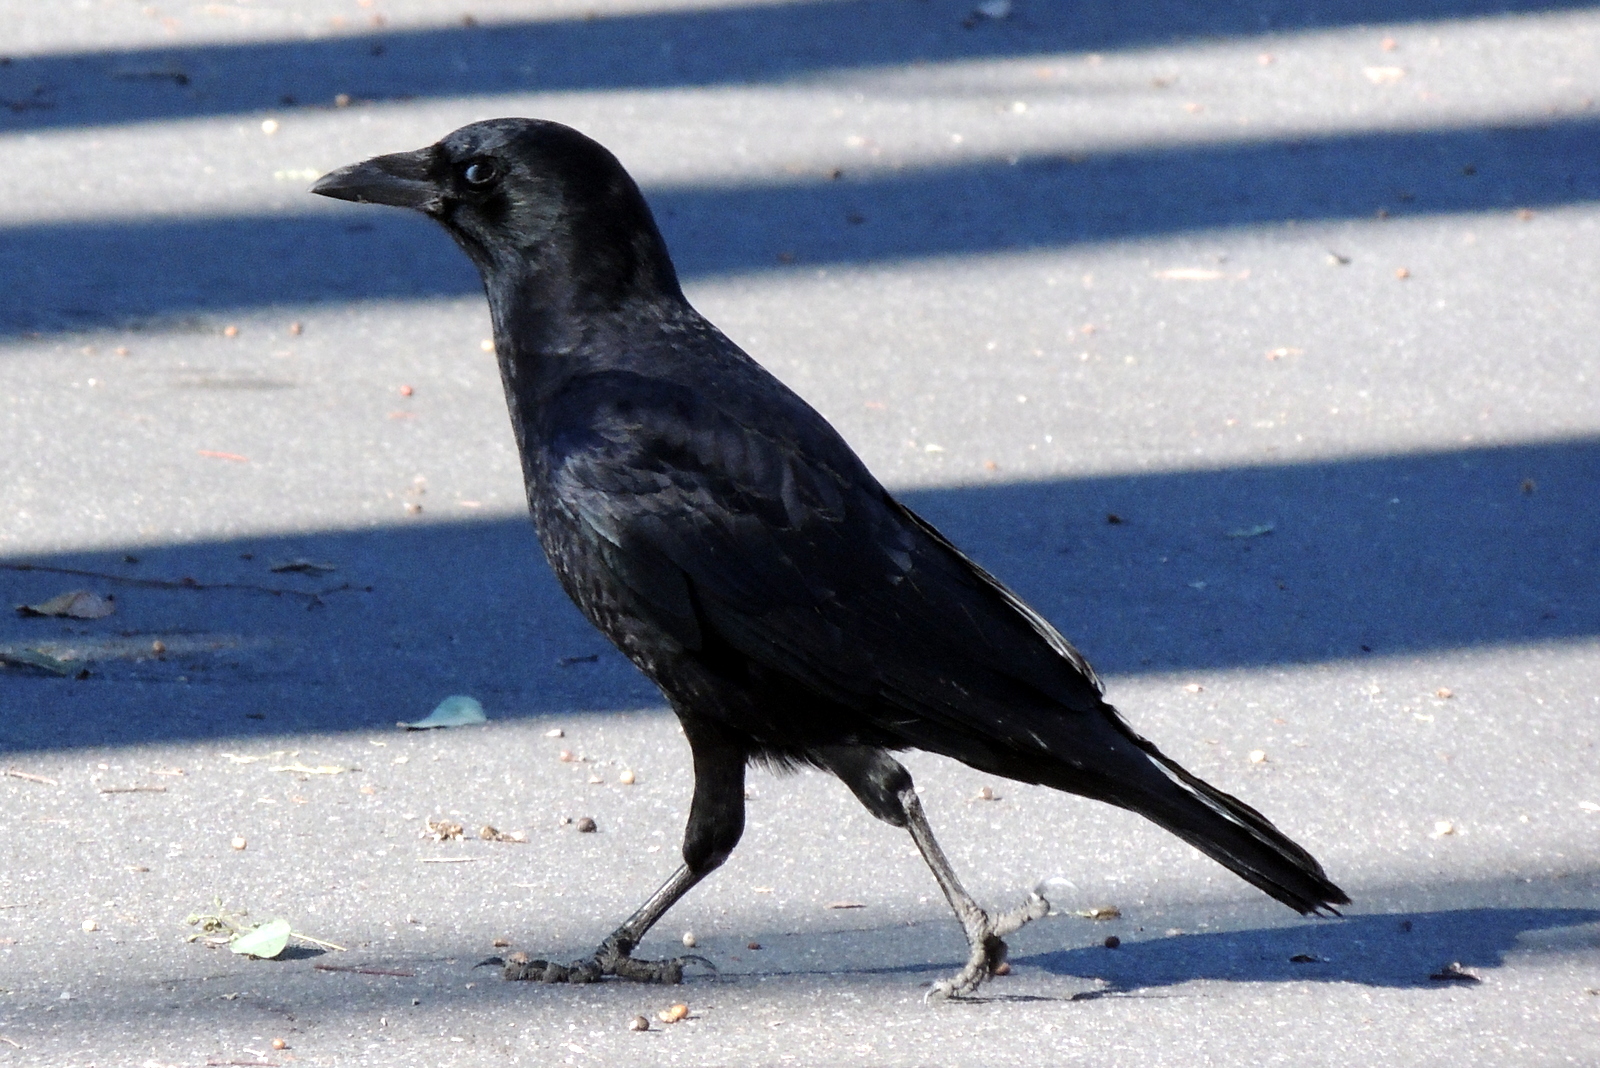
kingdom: Animalia
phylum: Chordata
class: Aves
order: Passeriformes
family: Corvidae
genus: Corvus
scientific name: Corvus brachyrhynchos
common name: American crow
